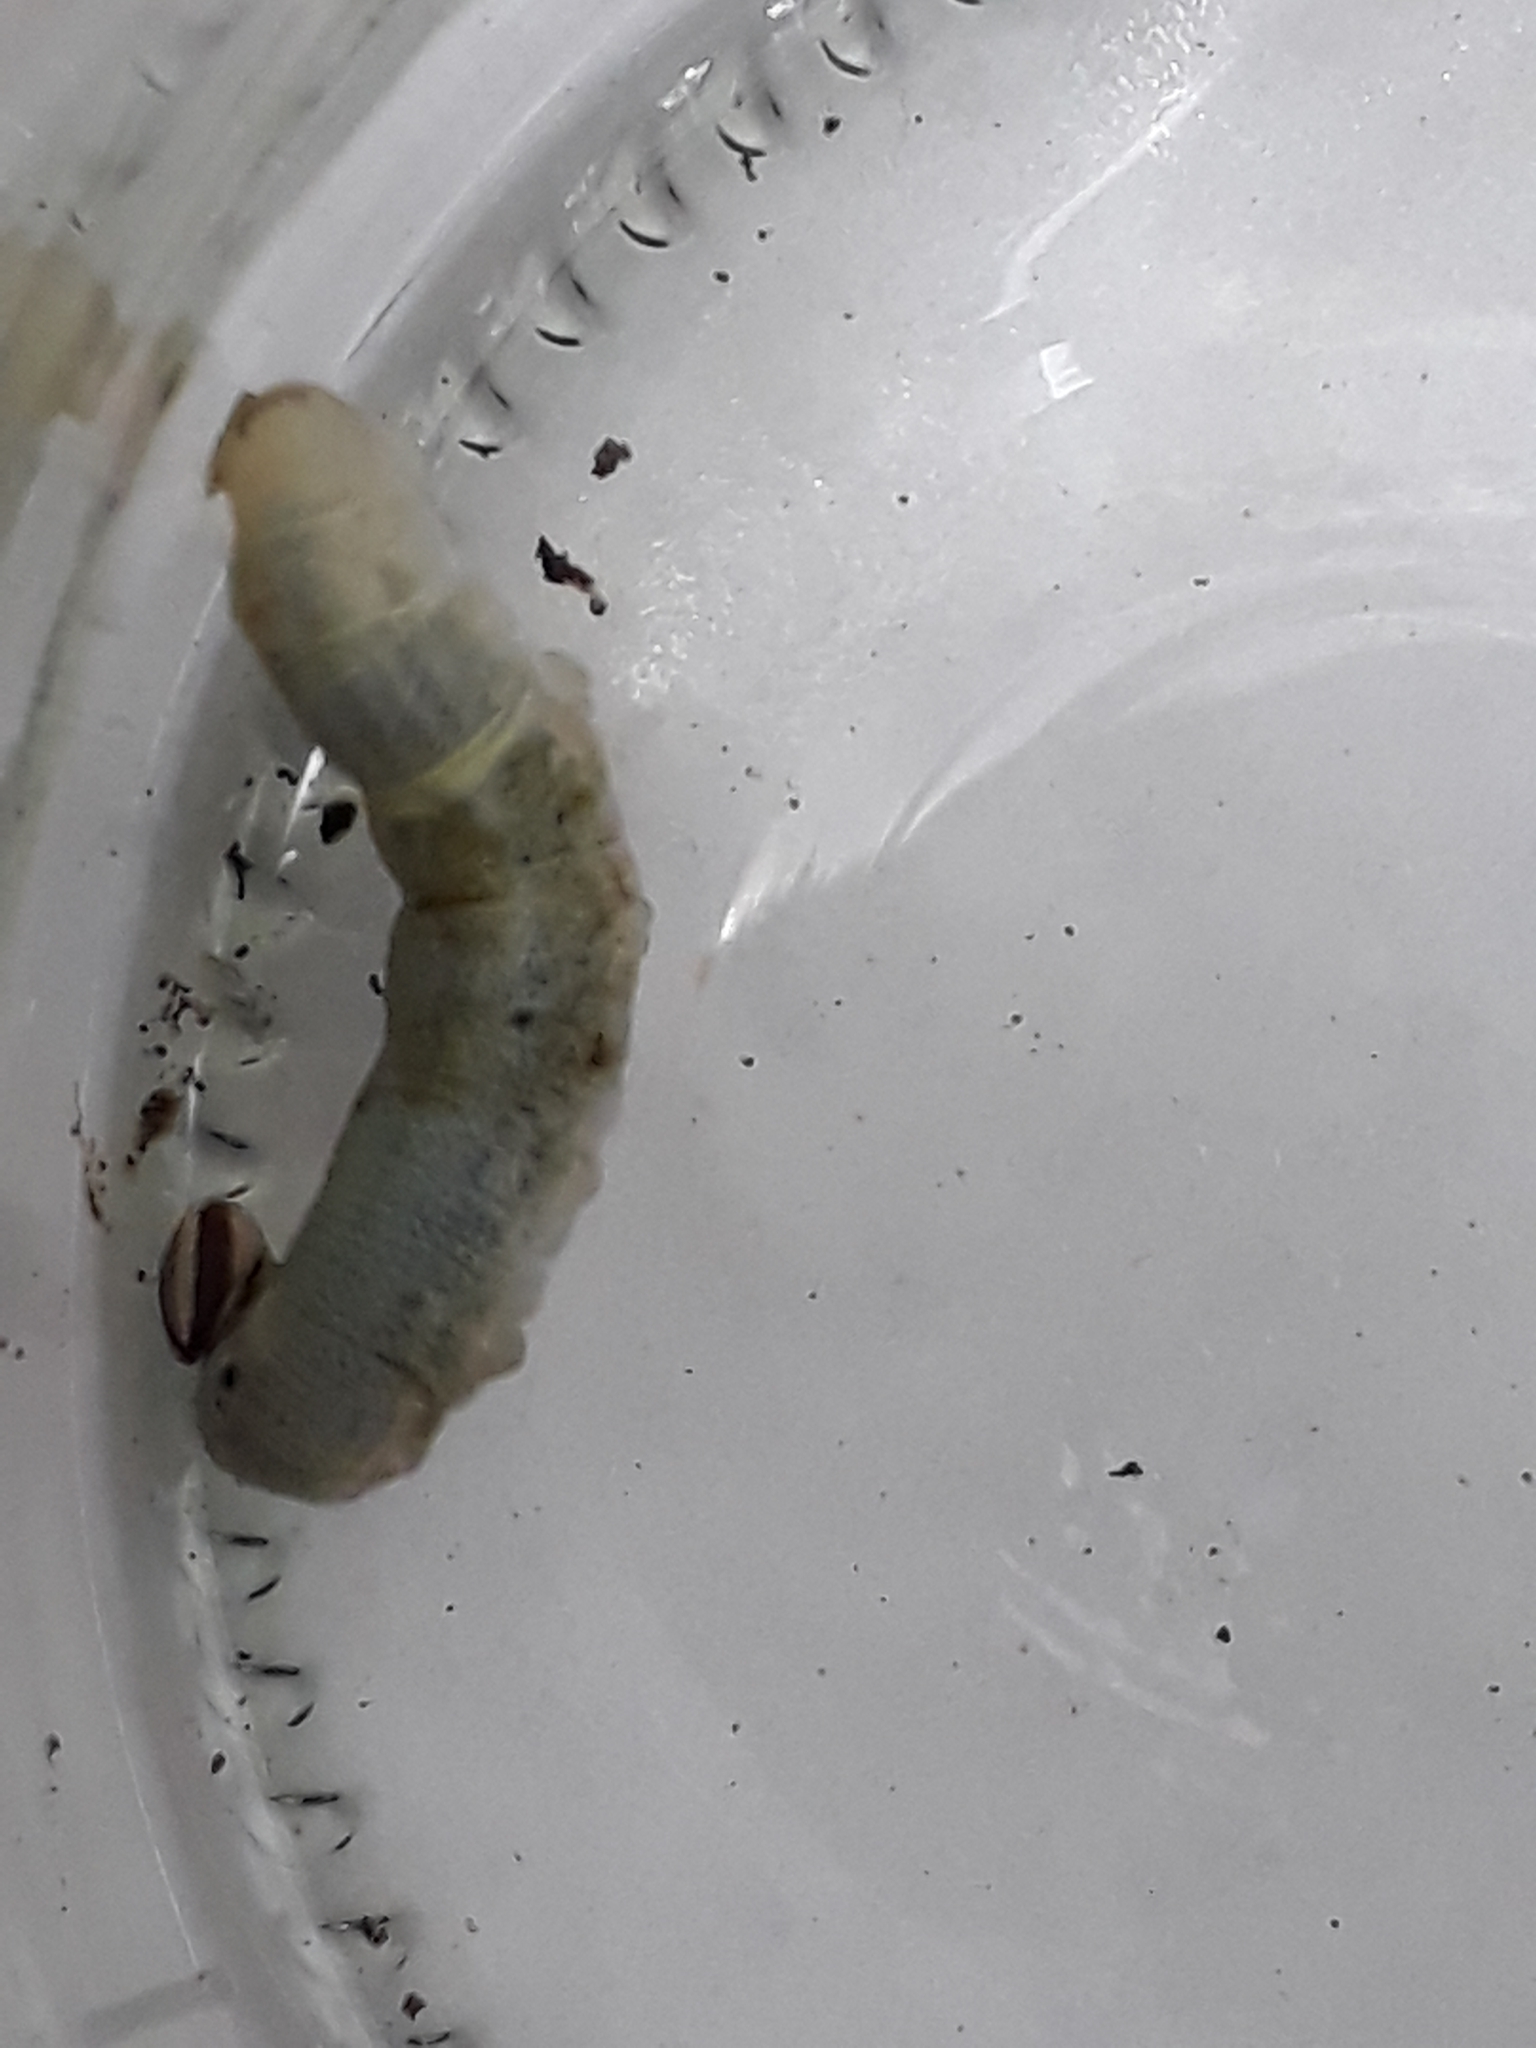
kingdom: Animalia
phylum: Arthropoda
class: Insecta
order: Lepidoptera
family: Hesperiidae
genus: Quinta
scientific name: Quinta cannae
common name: Canna skipper
